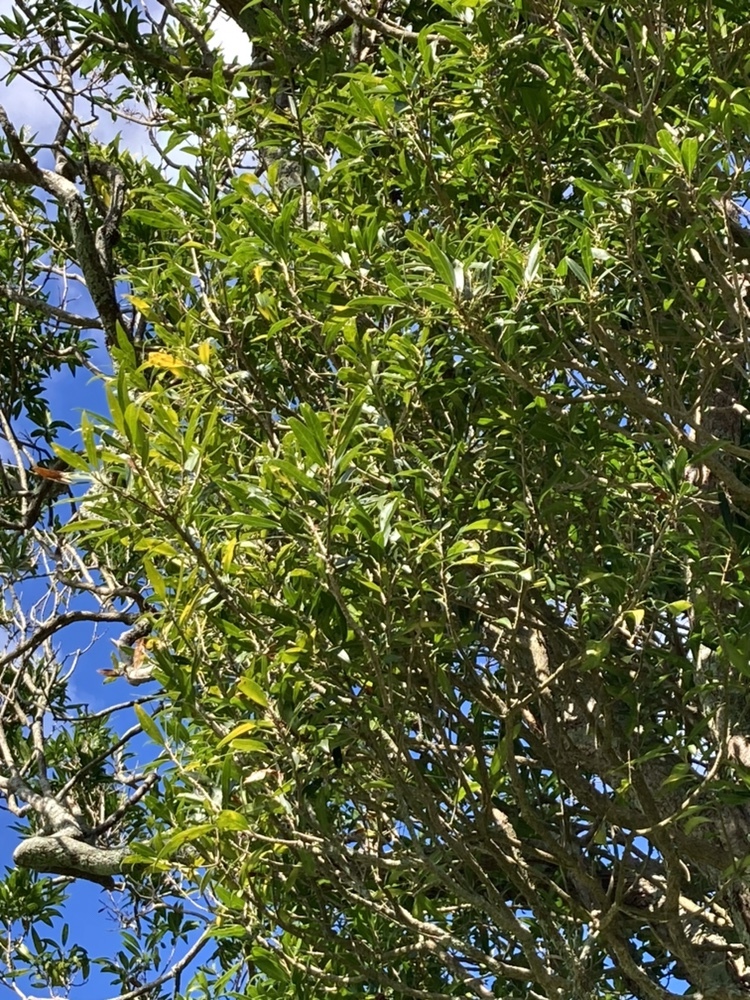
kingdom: Plantae
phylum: Tracheophyta
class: Magnoliopsida
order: Lamiales
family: Oleaceae
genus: Nestegis
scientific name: Nestegis lanceolata
